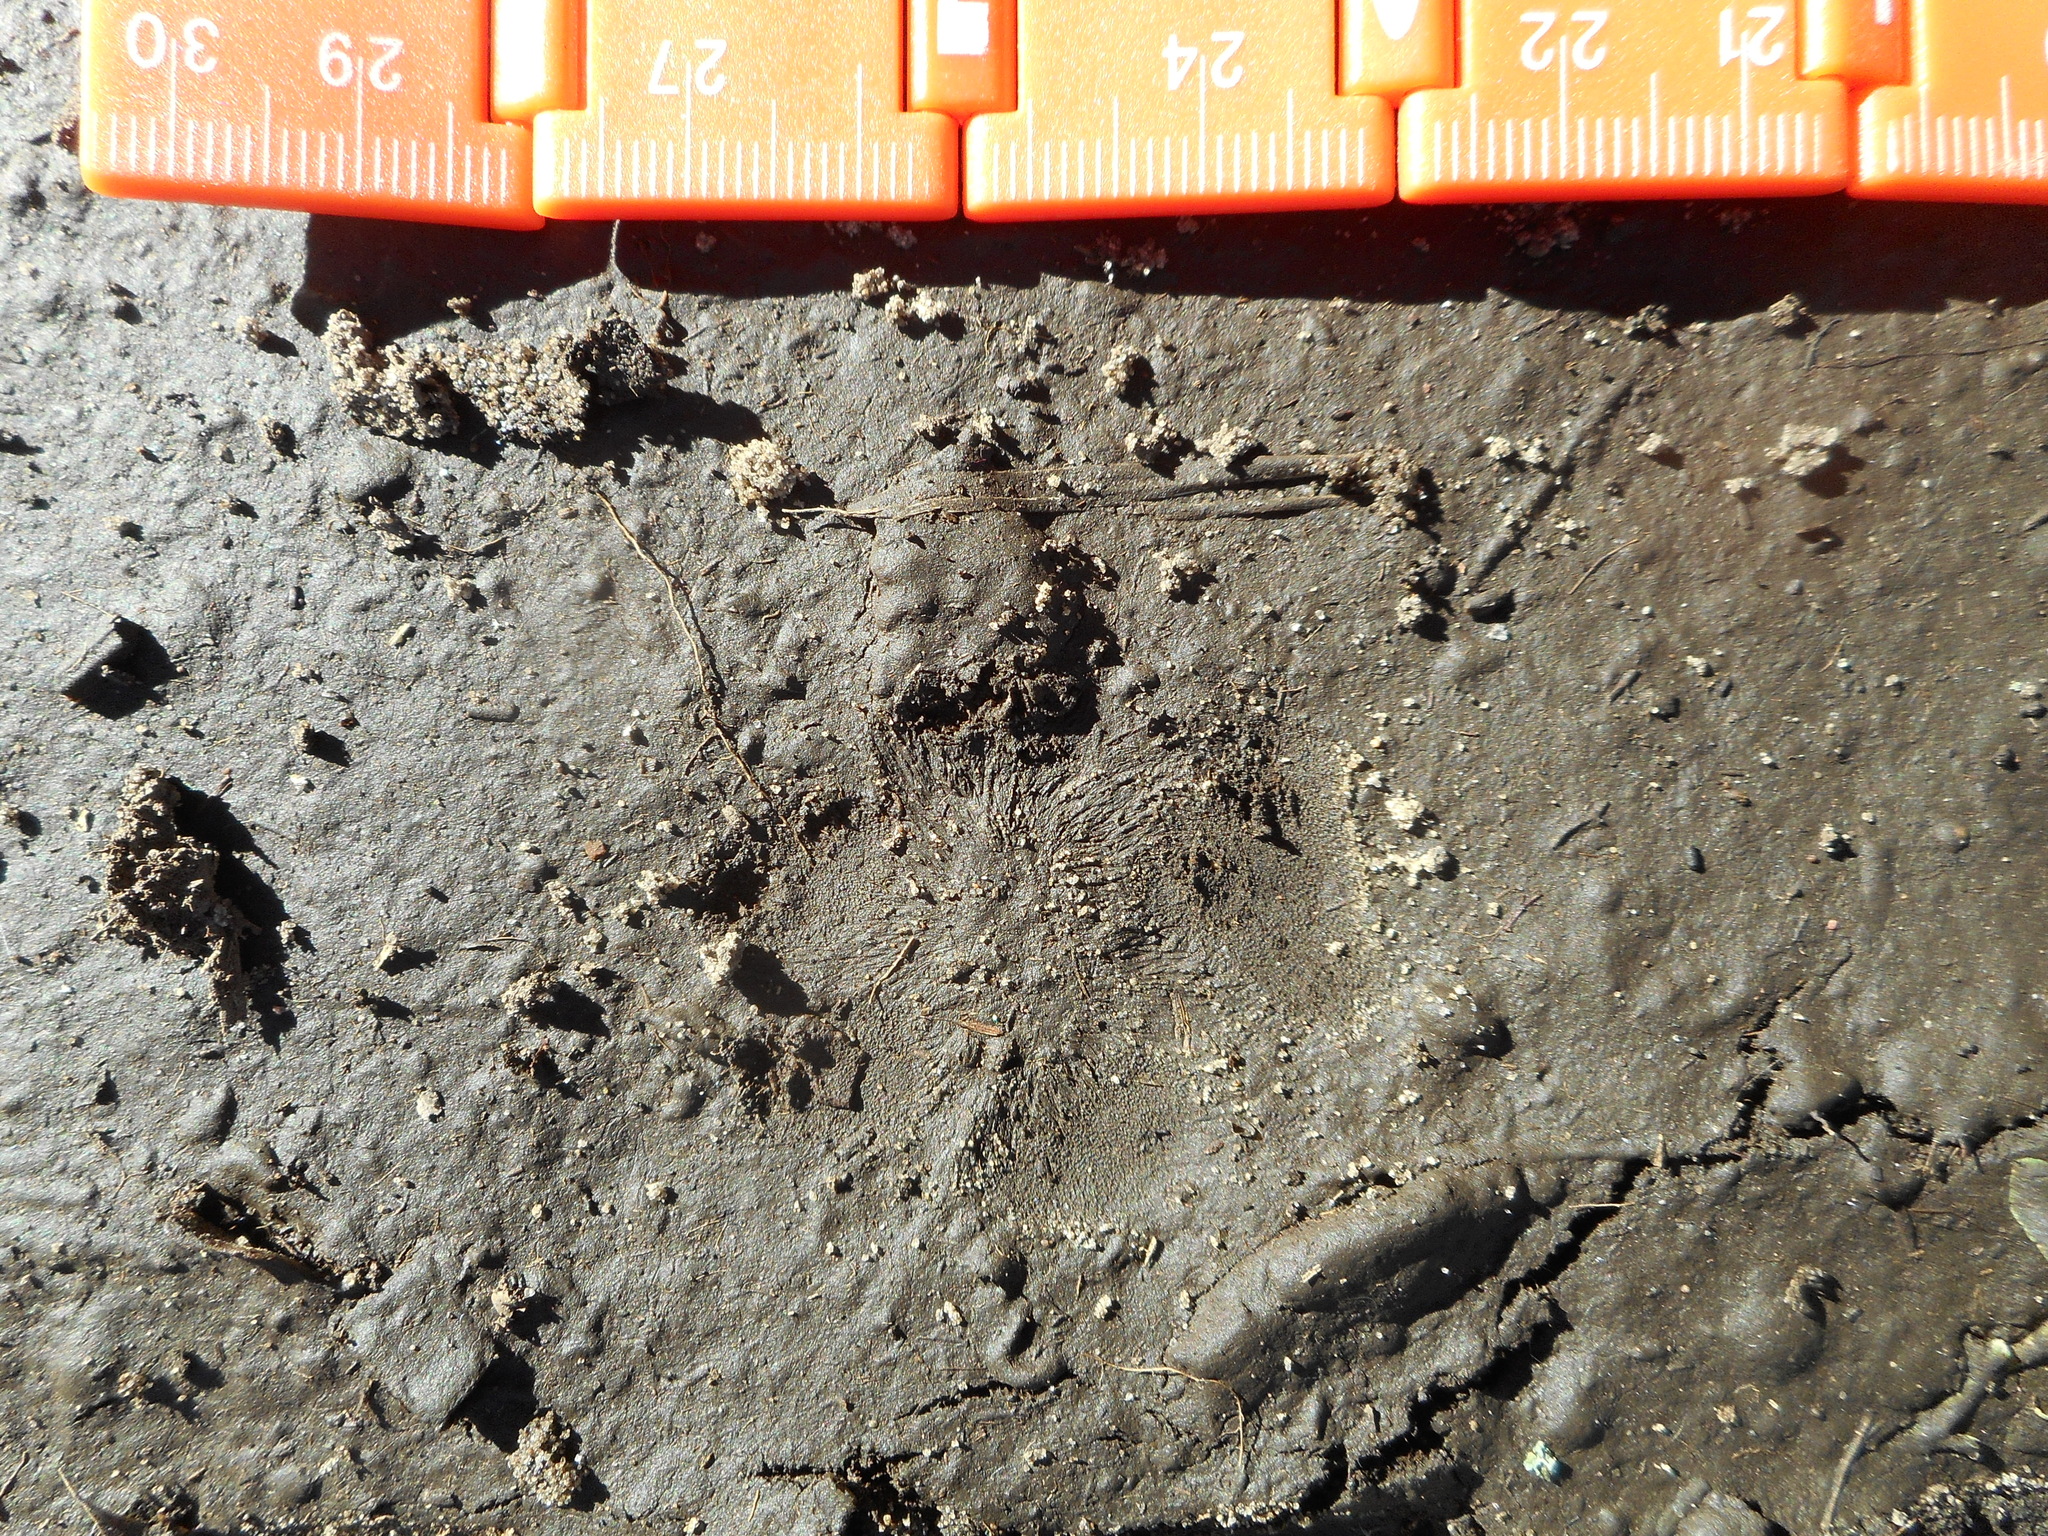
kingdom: Animalia
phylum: Chordata
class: Mammalia
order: Carnivora
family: Canidae
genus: Vulpes
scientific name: Vulpes vulpes
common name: Red fox
